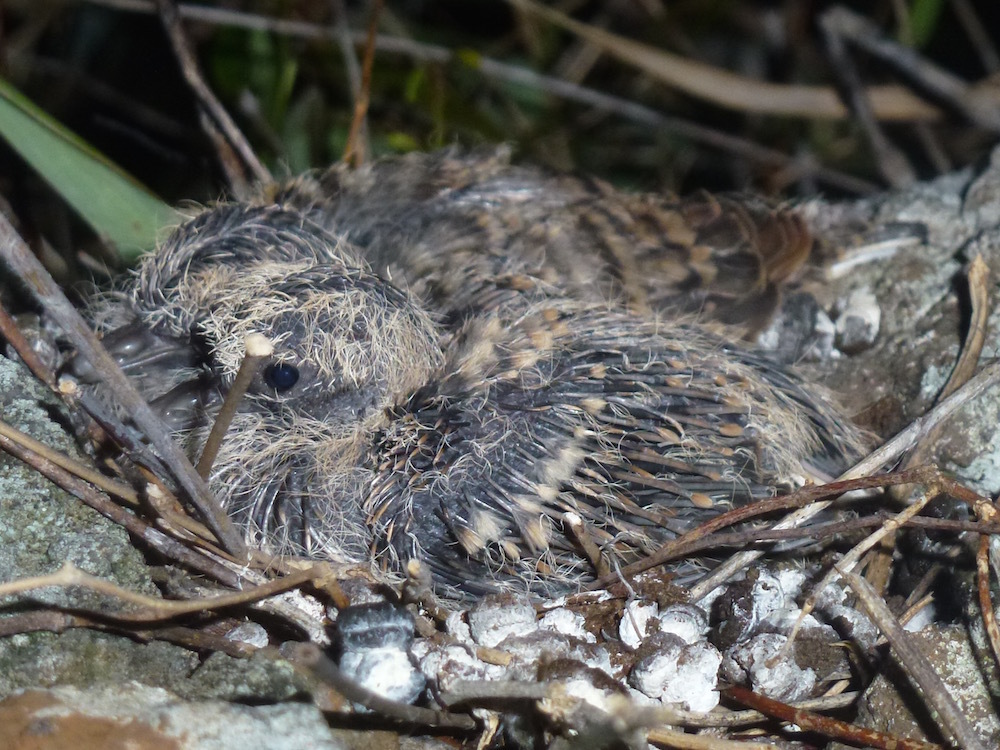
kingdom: Animalia
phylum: Chordata
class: Aves
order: Columbiformes
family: Columbidae
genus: Geopelia
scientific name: Geopelia striata
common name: Zebra dove
